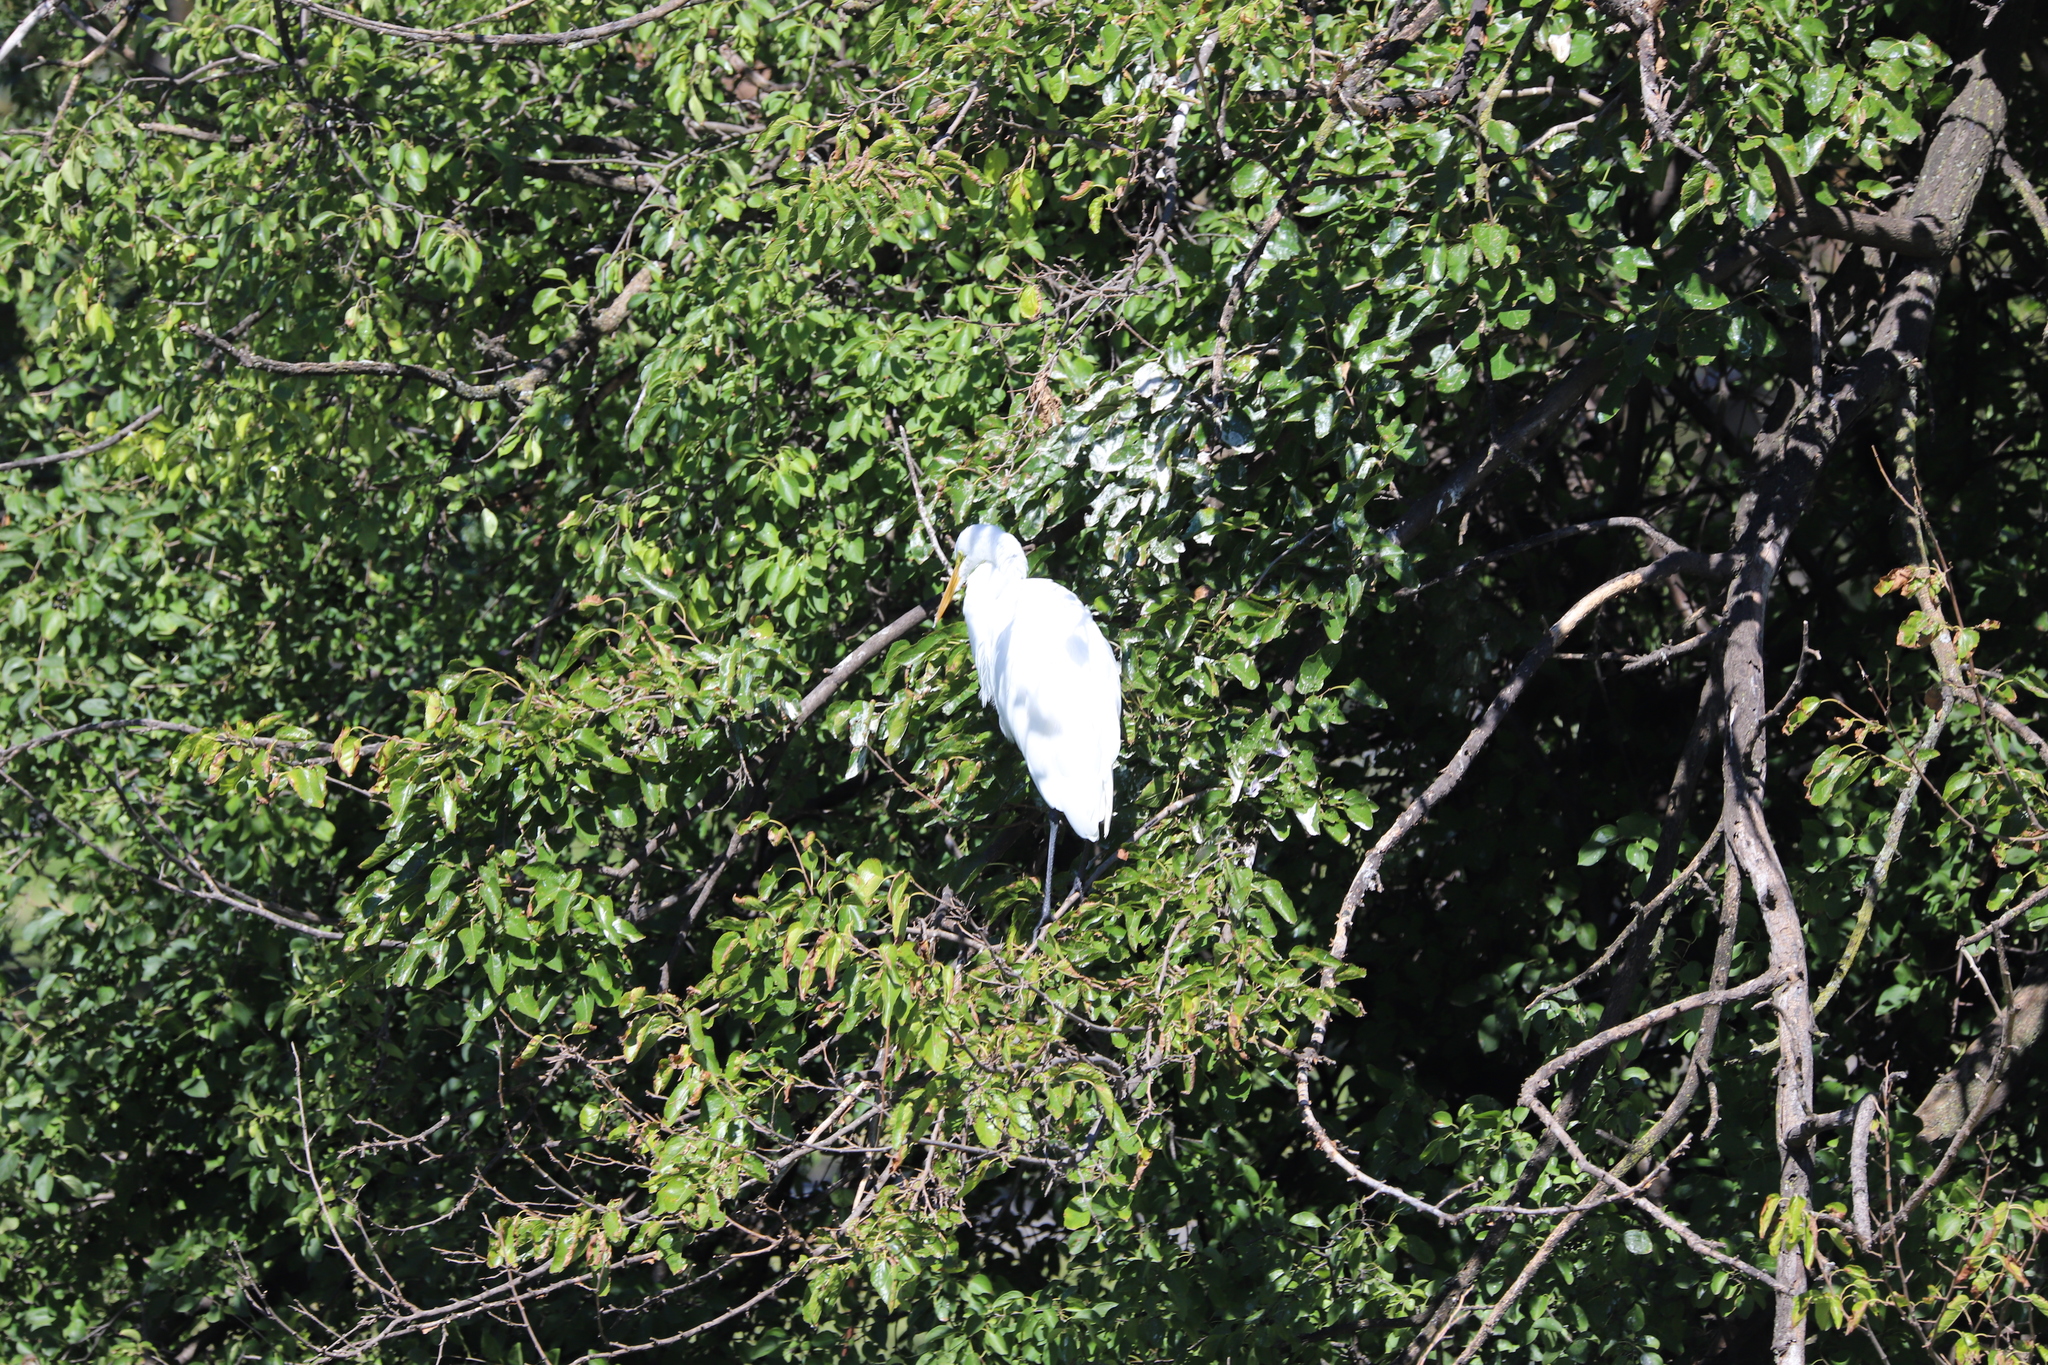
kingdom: Animalia
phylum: Chordata
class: Aves
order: Pelecaniformes
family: Ardeidae
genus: Ardea
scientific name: Ardea alba
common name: Great egret
